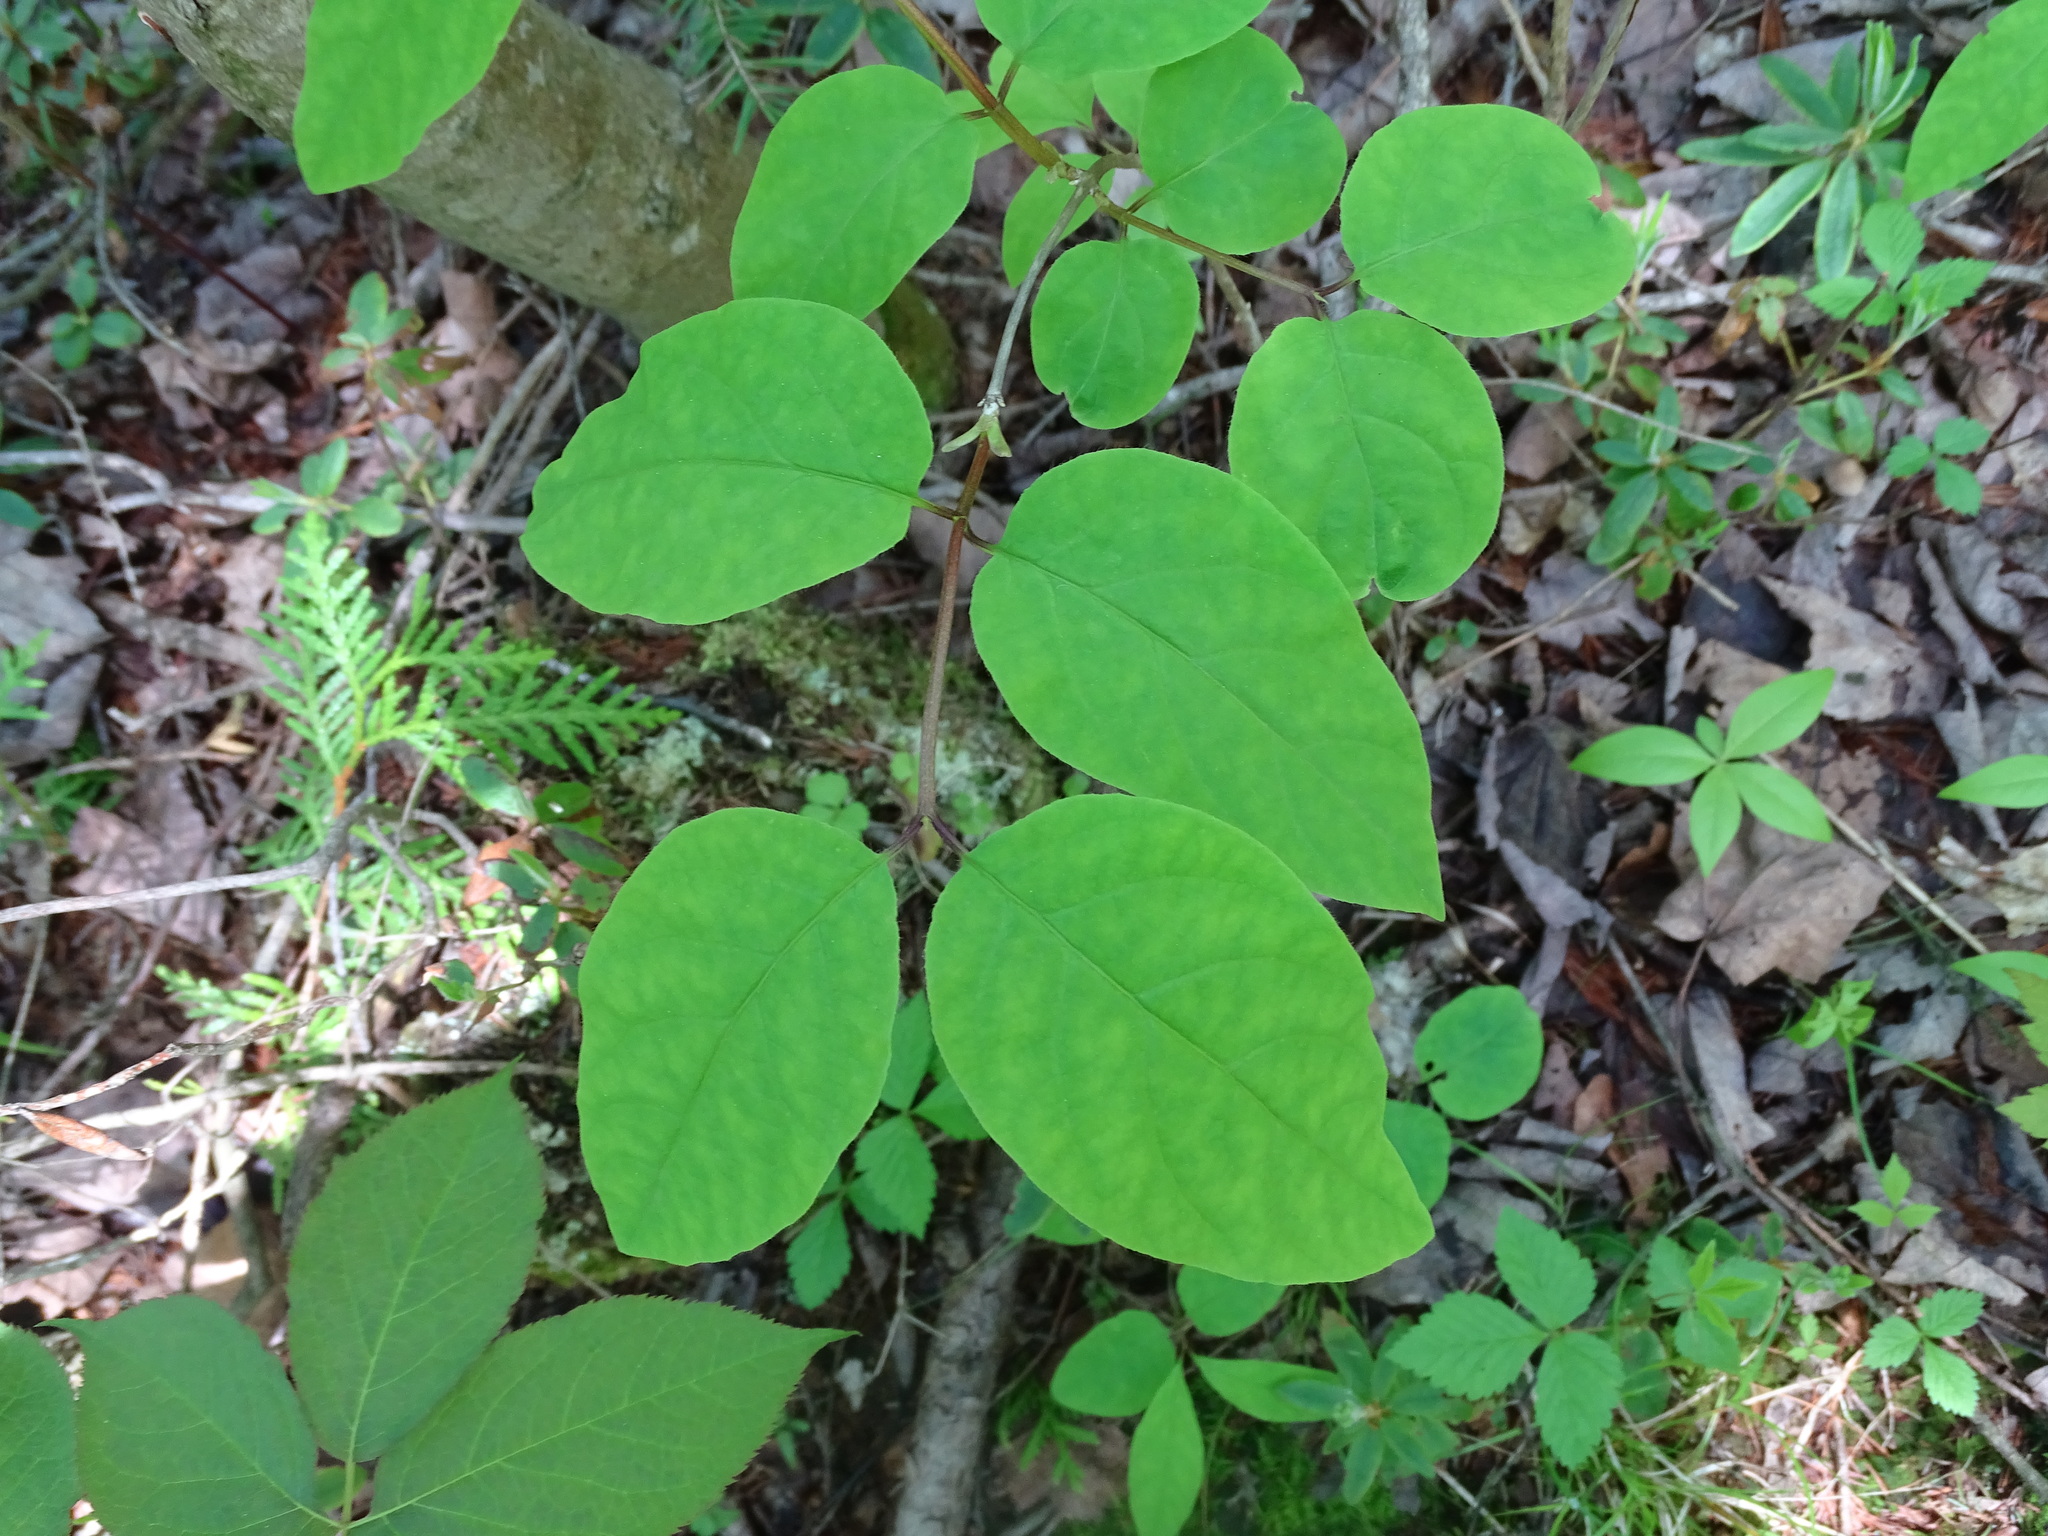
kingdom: Plantae
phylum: Tracheophyta
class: Magnoliopsida
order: Dipsacales
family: Caprifoliaceae
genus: Lonicera
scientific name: Lonicera canadensis
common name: American fly-honeysuckle
